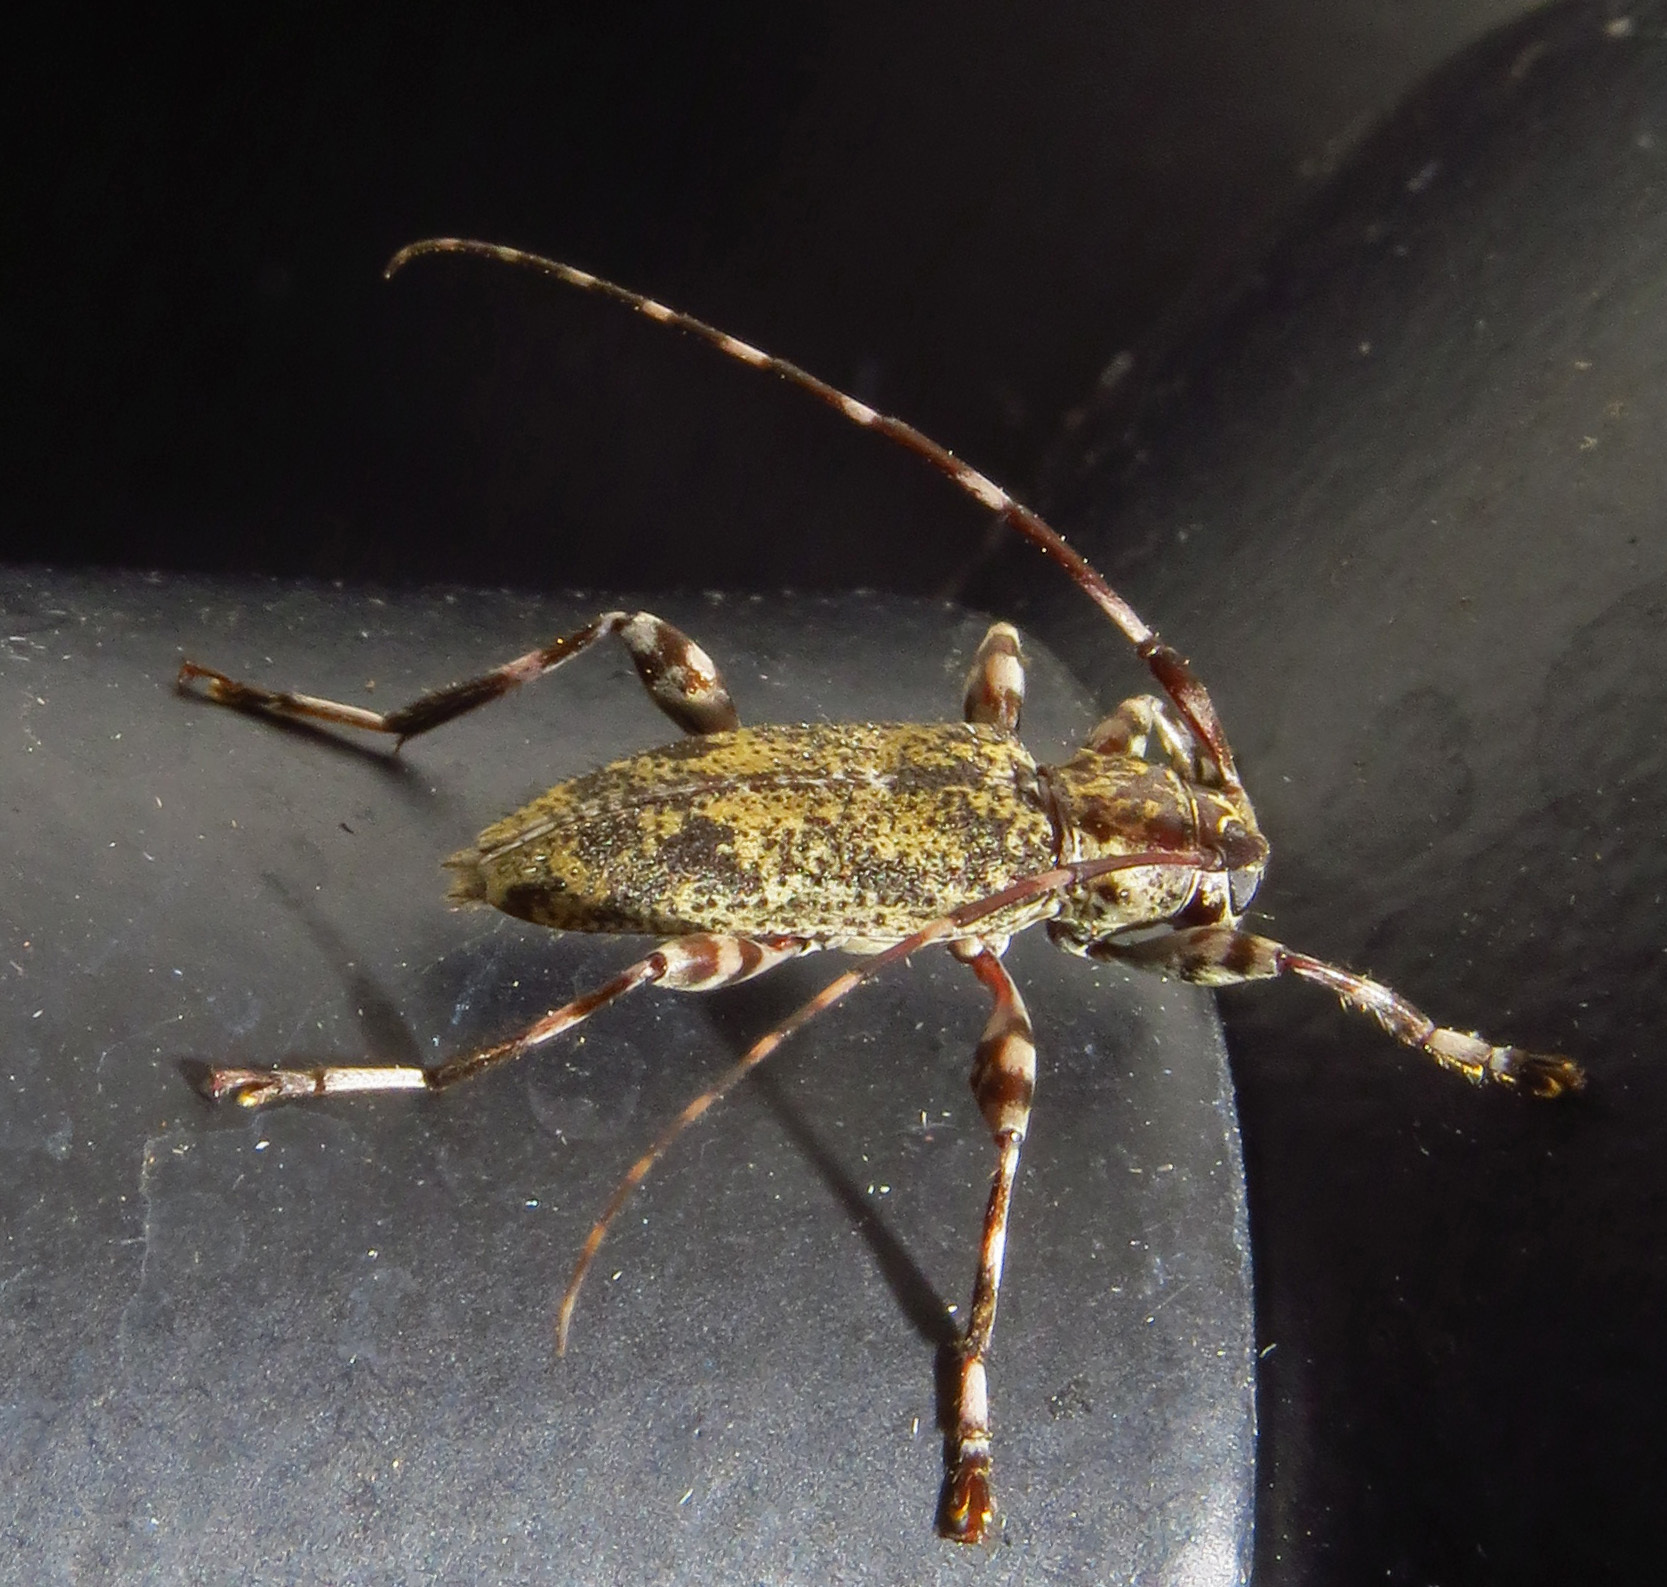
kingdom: Animalia
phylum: Arthropoda
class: Insecta
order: Coleoptera
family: Cerambycidae
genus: Graphisurus
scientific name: Graphisurus fasciatus
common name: Banded graphisurus
